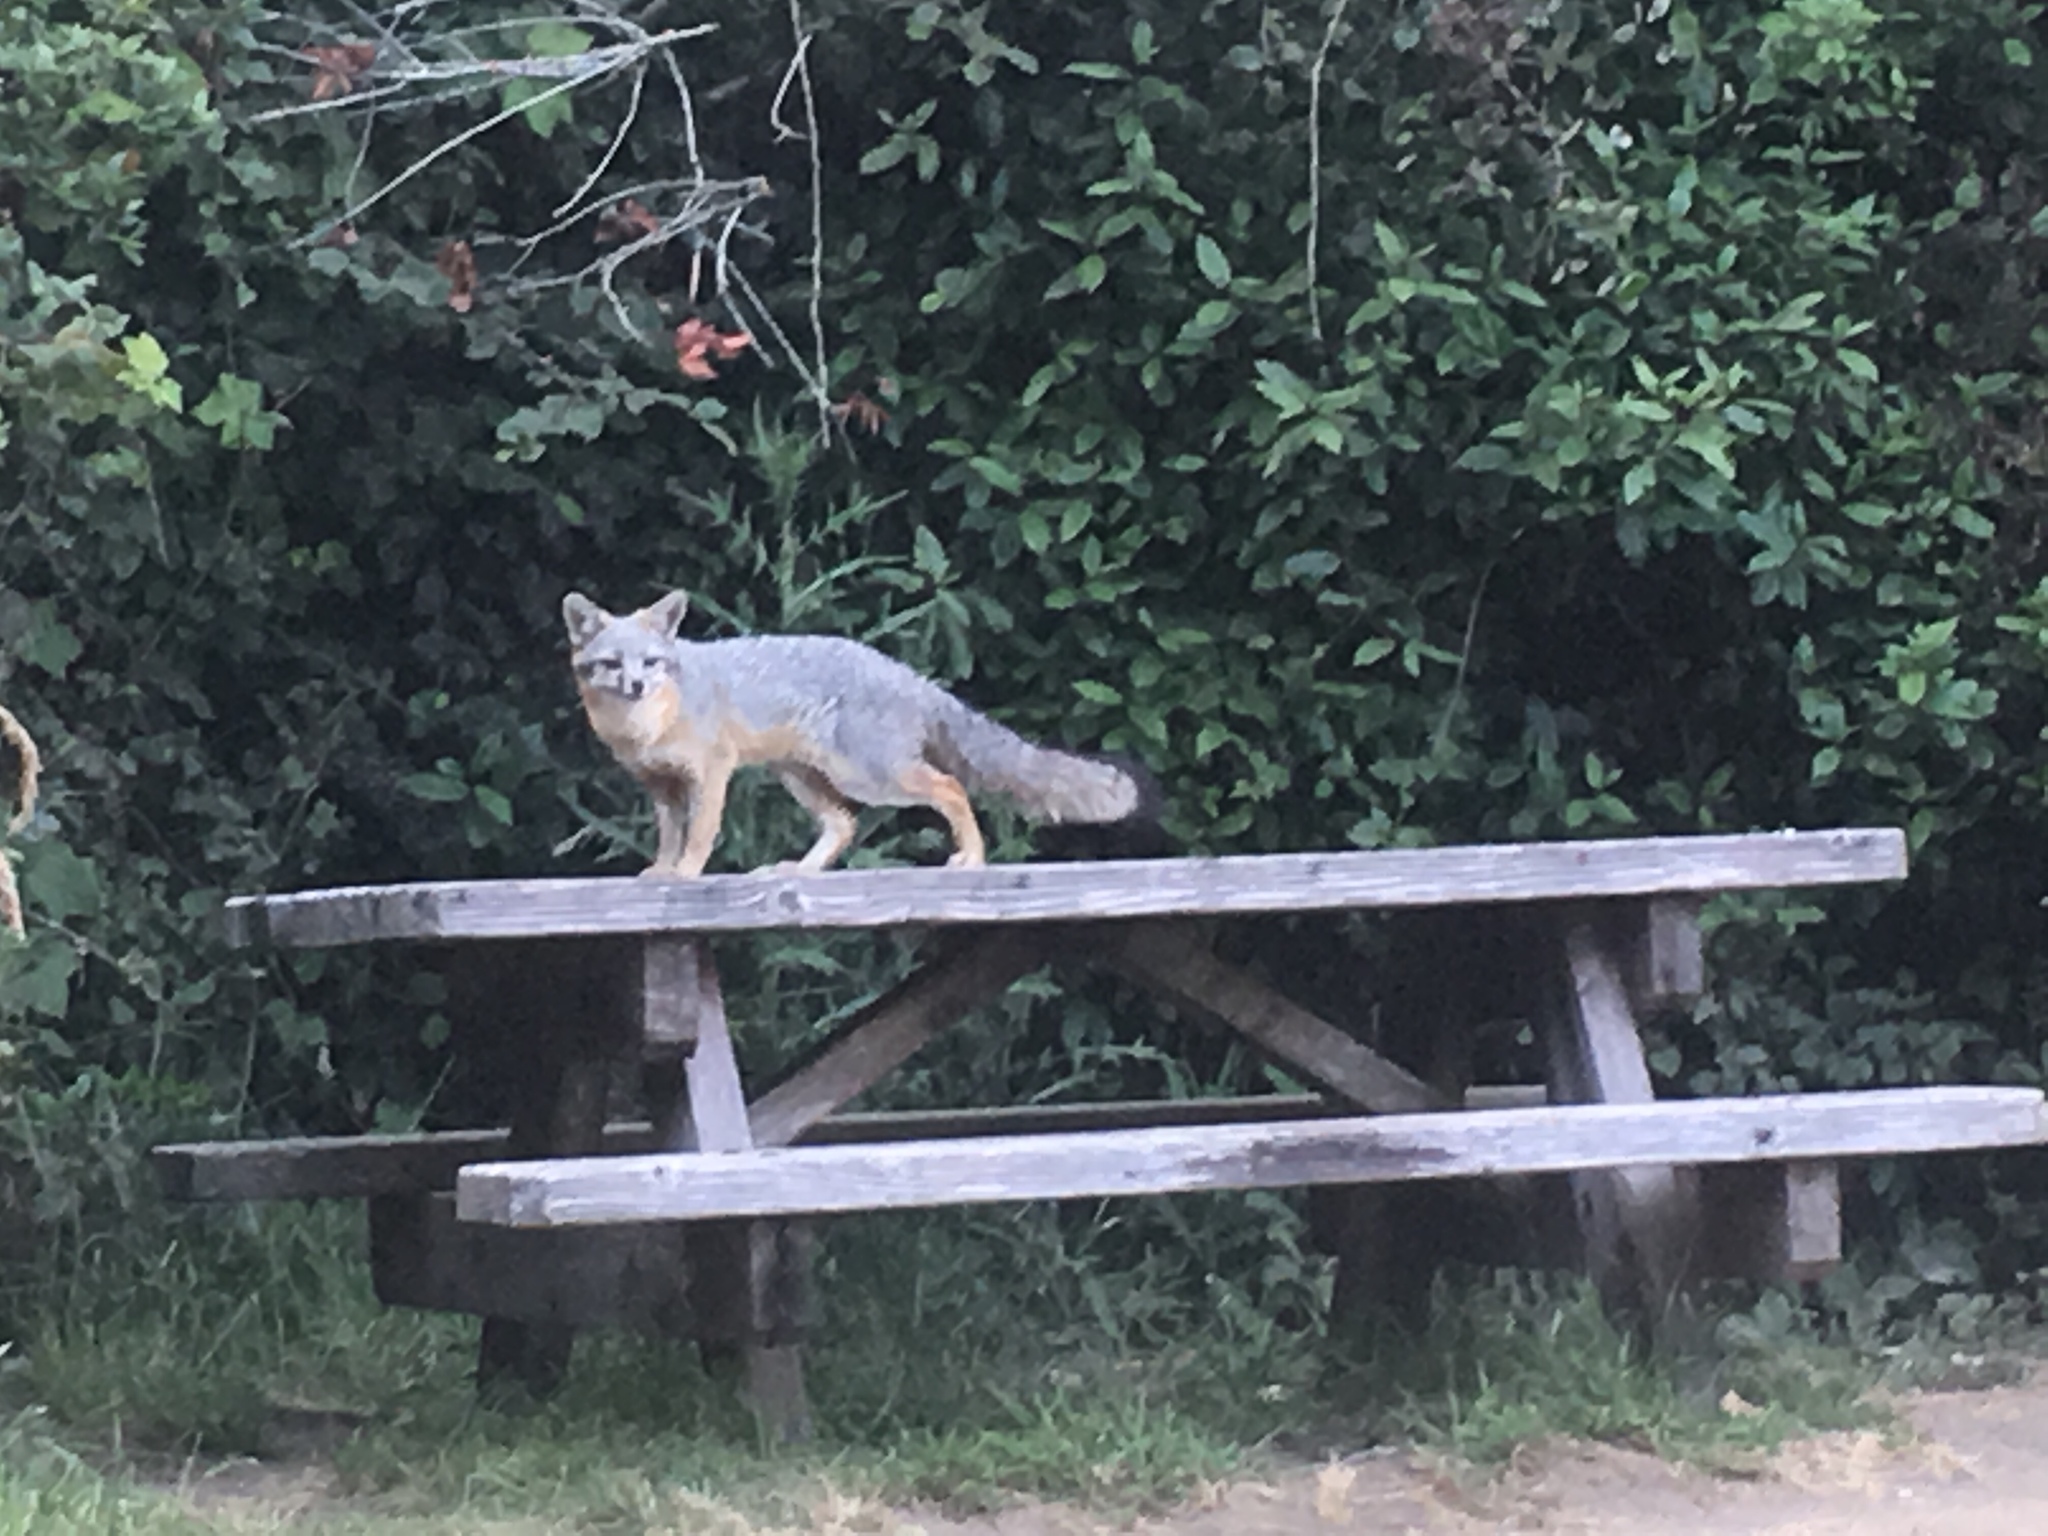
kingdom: Animalia
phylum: Chordata
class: Mammalia
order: Carnivora
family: Canidae
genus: Urocyon
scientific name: Urocyon cinereoargenteus
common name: Gray fox
